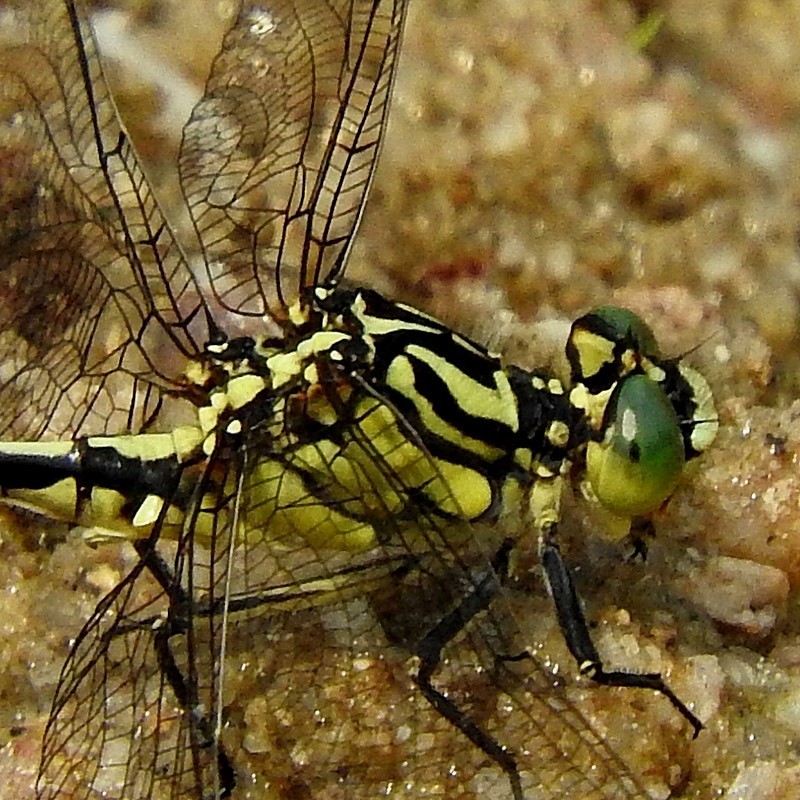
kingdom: Animalia
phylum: Arthropoda
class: Insecta
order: Odonata
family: Gomphidae
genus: Austrogomphus
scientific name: Austrogomphus guerini
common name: Yellow-striped hunter
